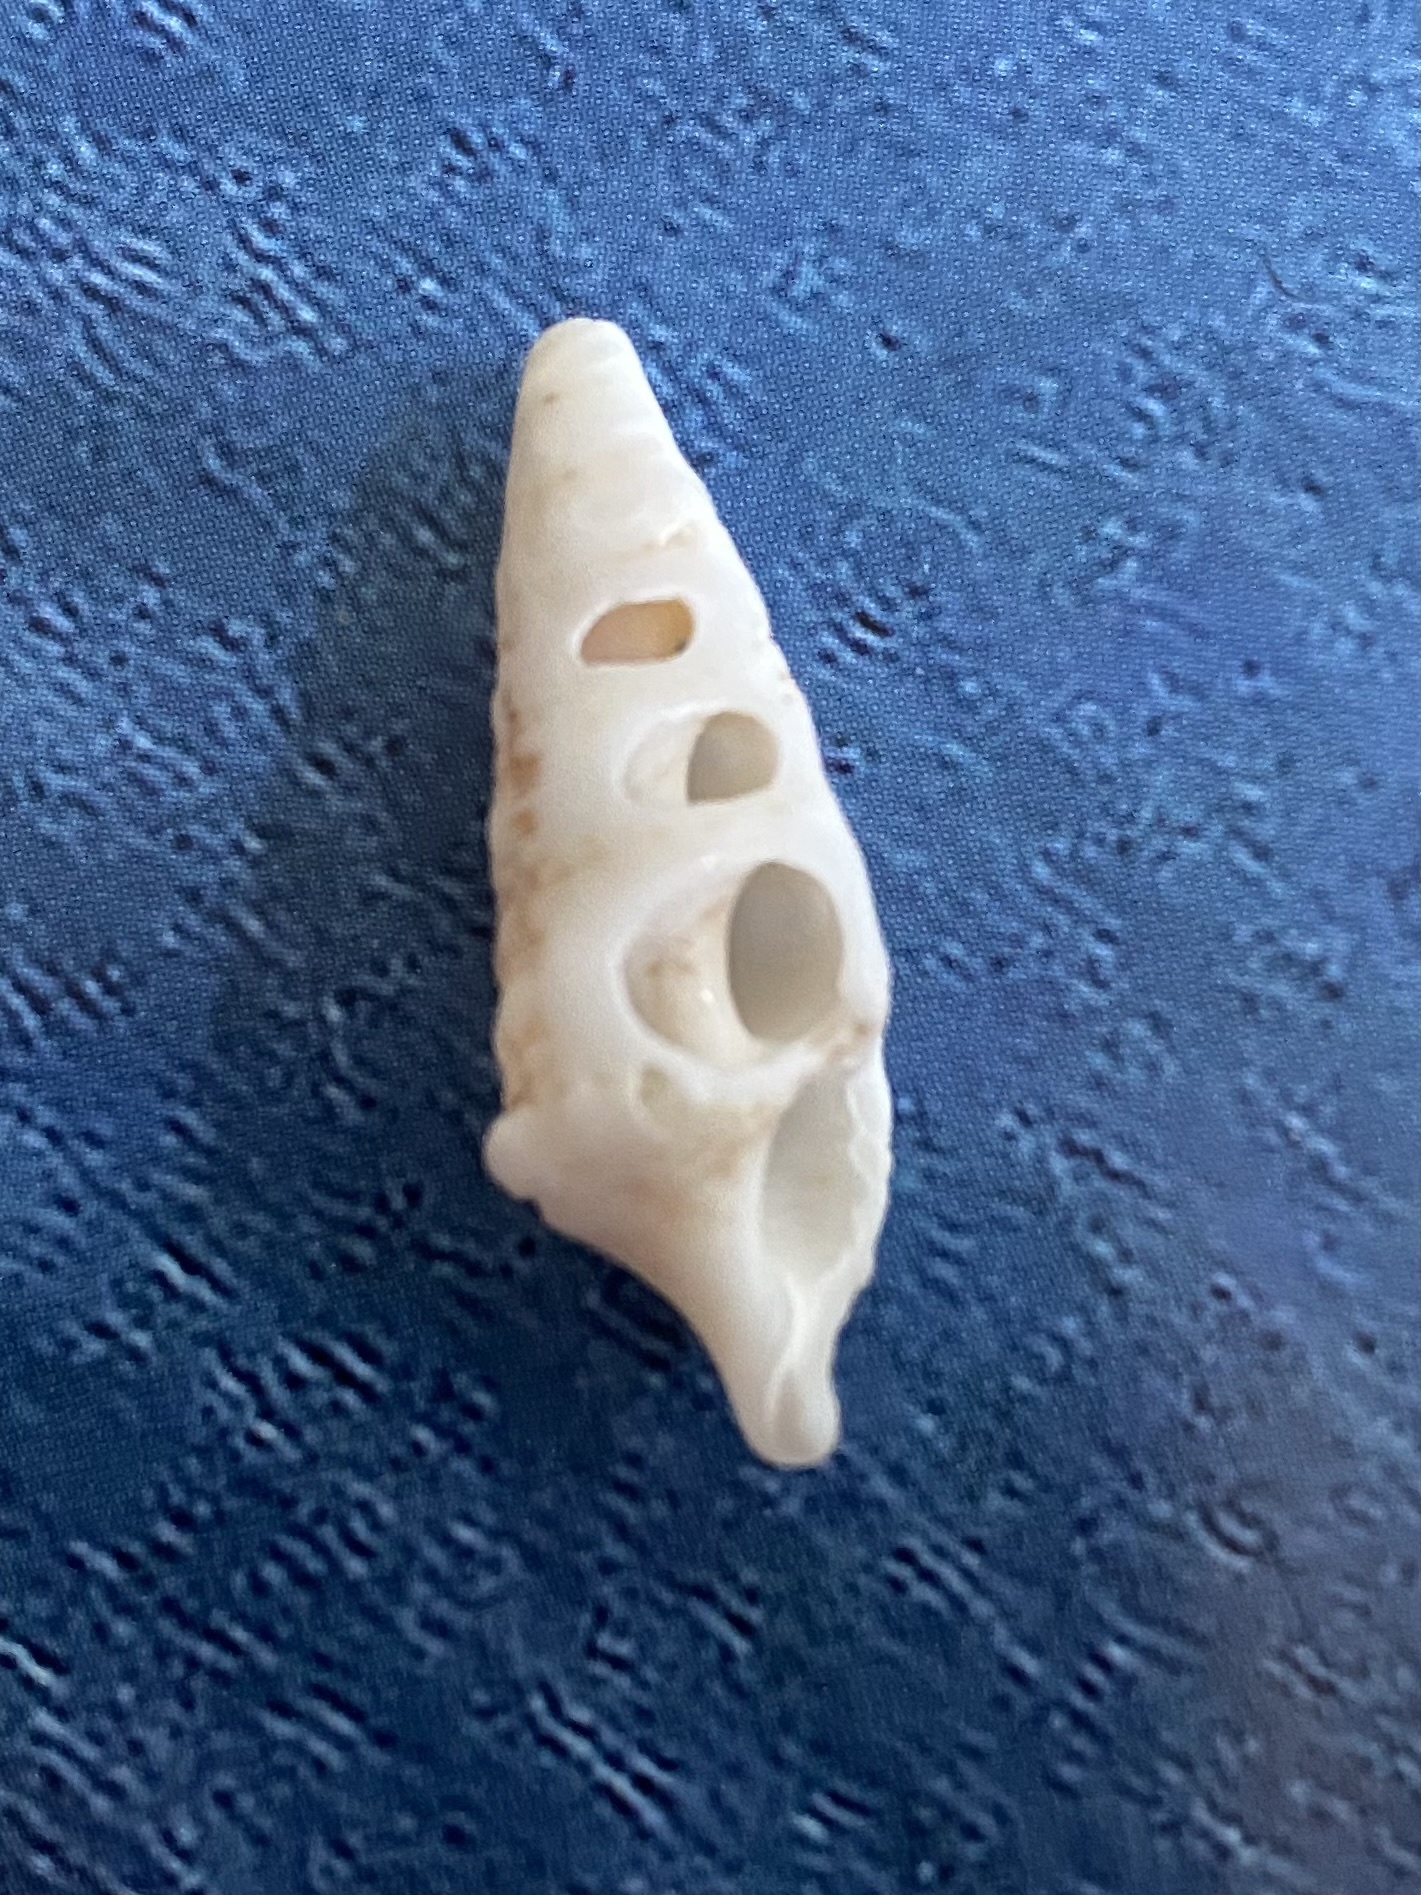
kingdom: Animalia
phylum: Mollusca
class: Gastropoda
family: Cerithiidae
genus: Cerithium
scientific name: Cerithium atratum
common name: Dark cerith
